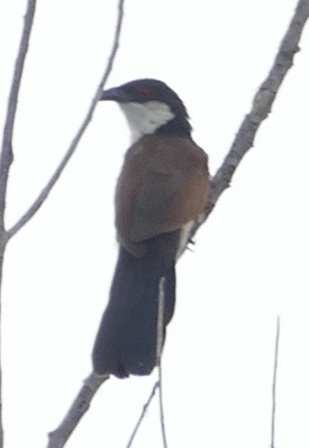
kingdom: Animalia
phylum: Chordata
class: Aves
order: Cuculiformes
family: Cuculidae
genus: Centropus
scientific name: Centropus senegalensis
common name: Senegal coucal
